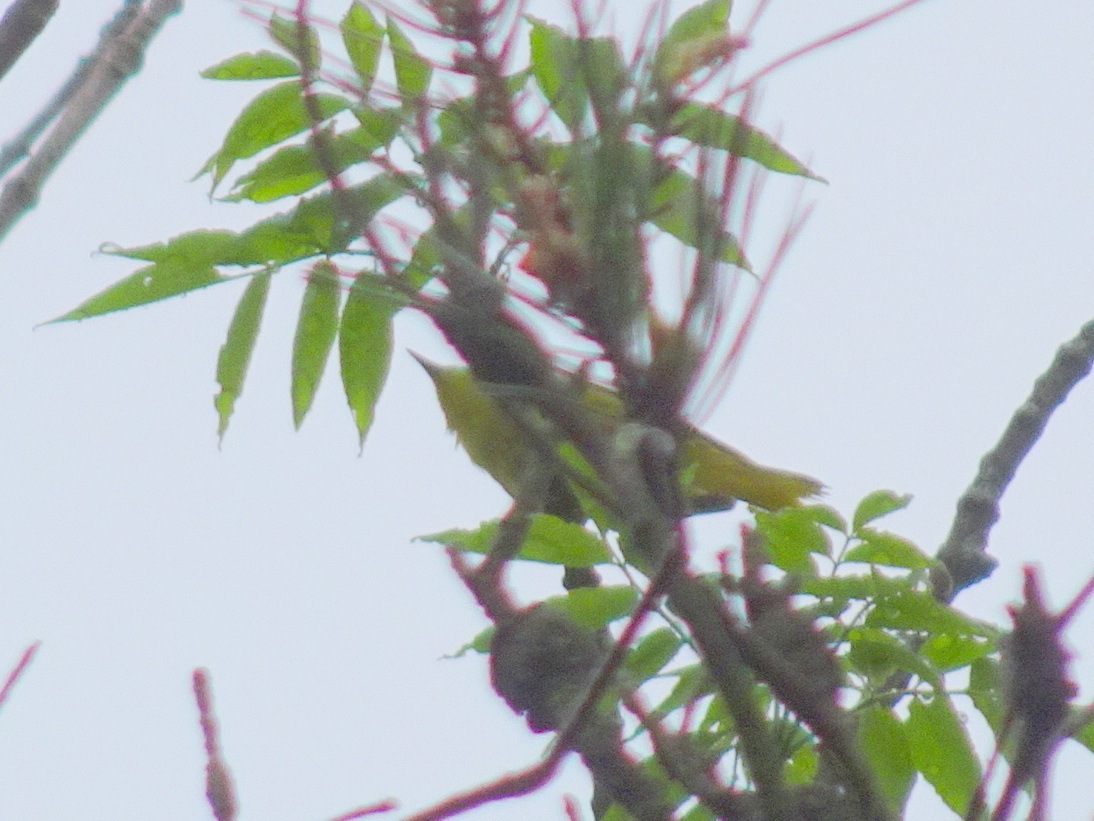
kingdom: Animalia
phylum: Chordata
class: Aves
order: Passeriformes
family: Parulidae
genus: Setophaga
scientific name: Setophaga petechia
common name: Yellow warbler
